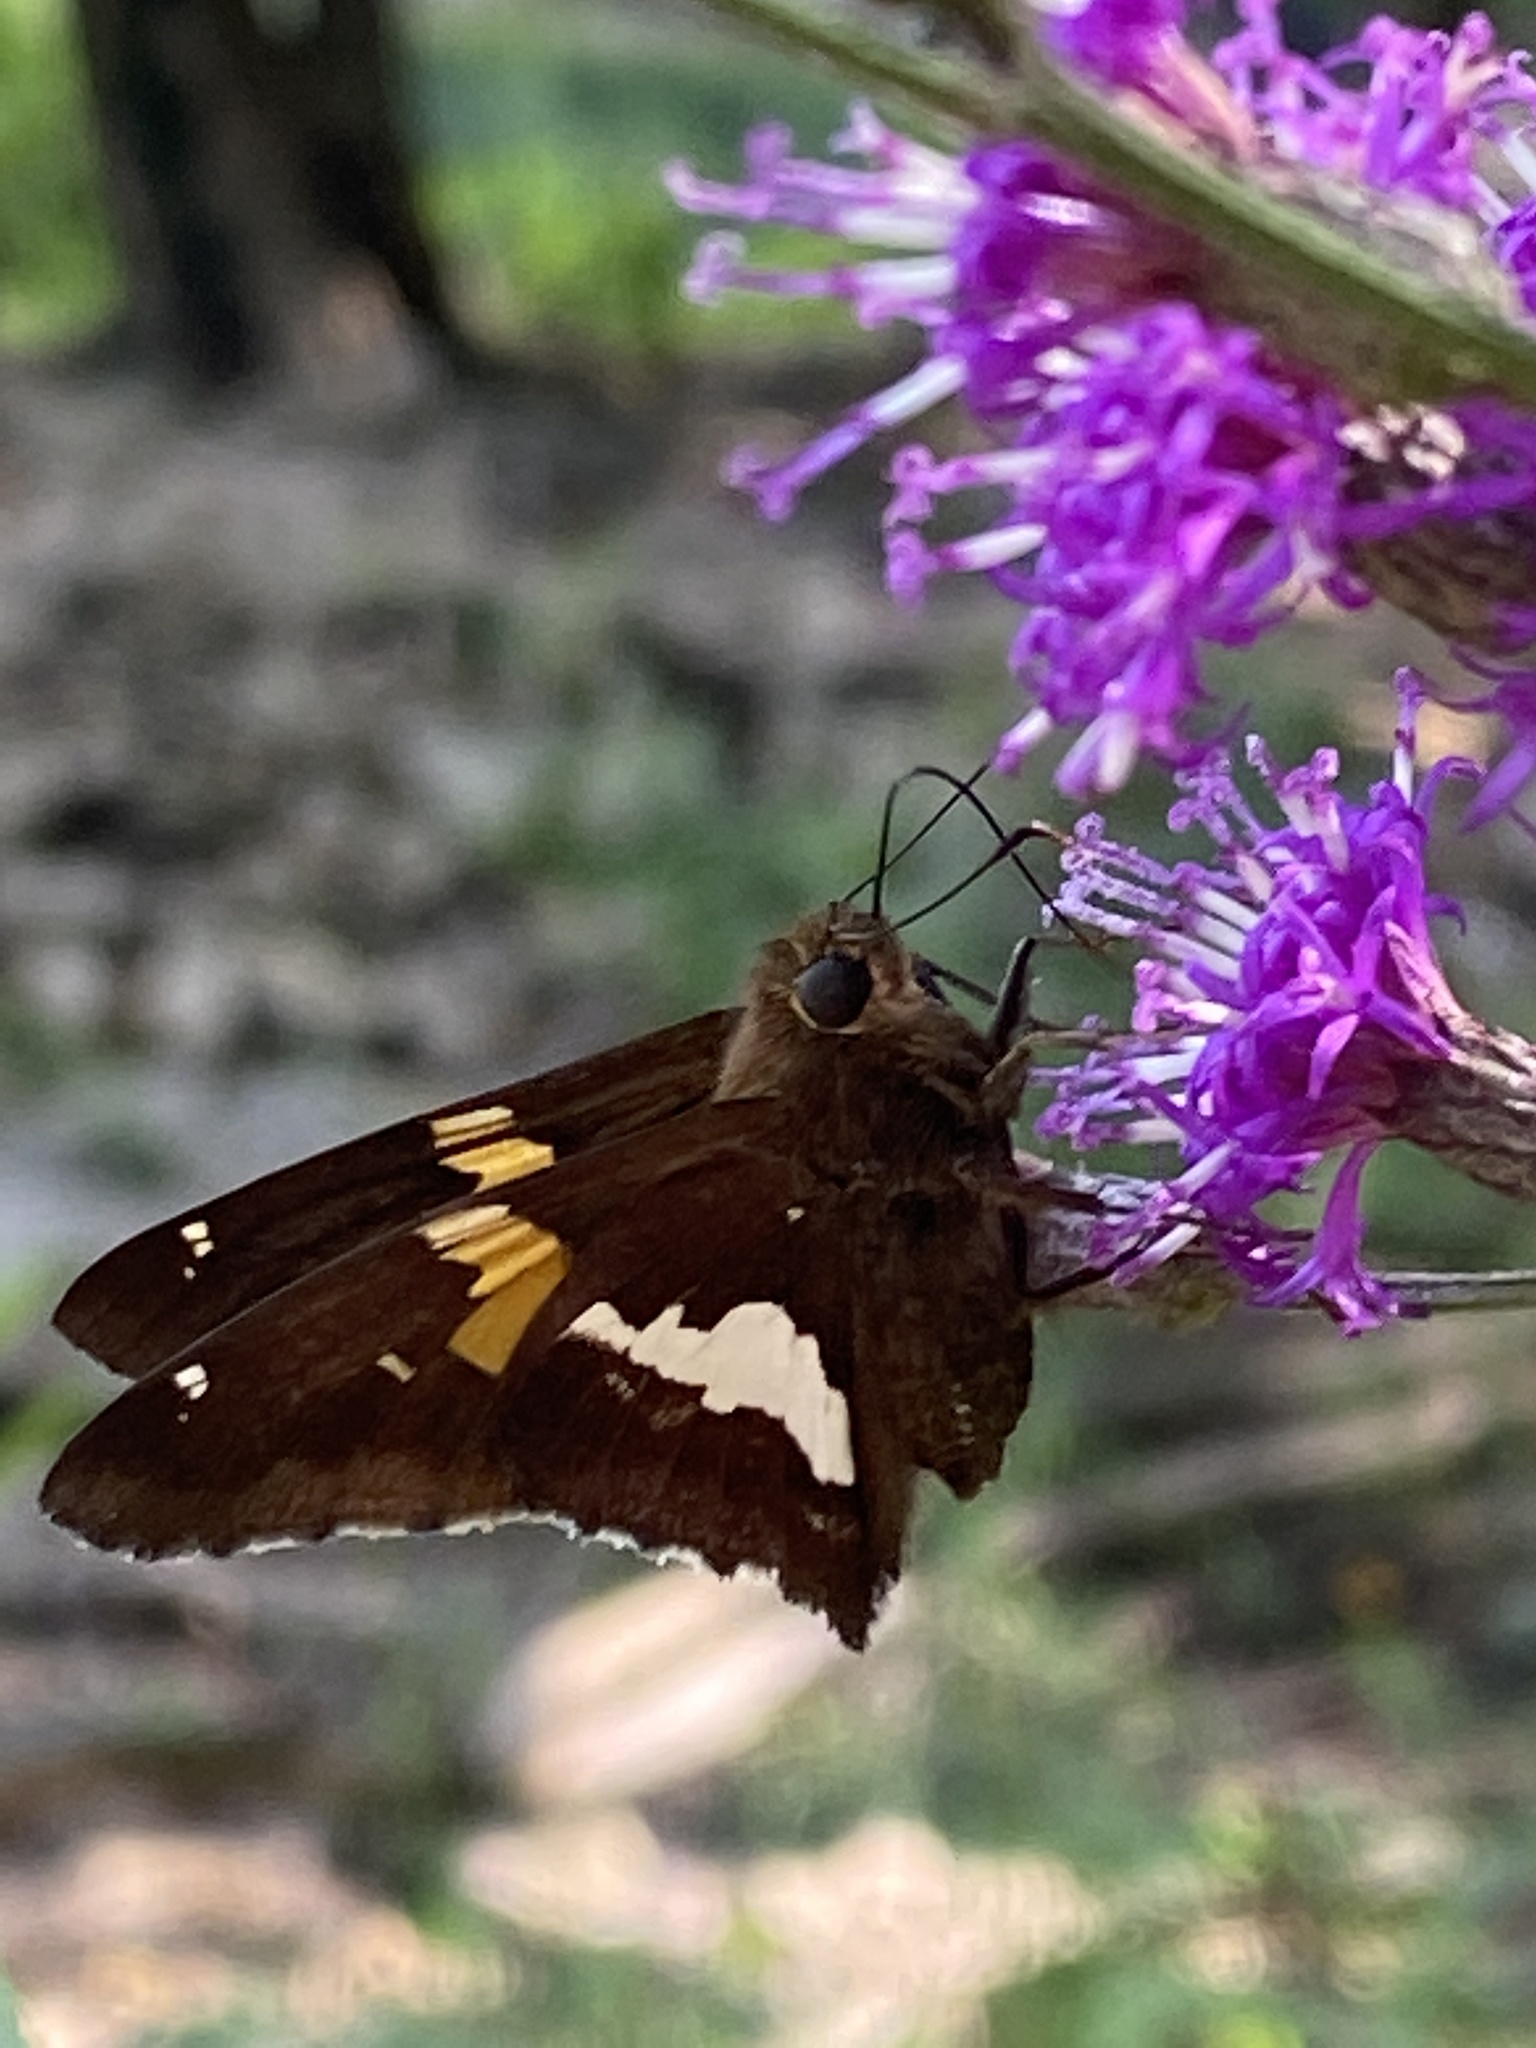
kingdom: Animalia
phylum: Arthropoda
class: Insecta
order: Lepidoptera
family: Hesperiidae
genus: Epargyreus
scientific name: Epargyreus clarus
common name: Silver-spotted skipper
